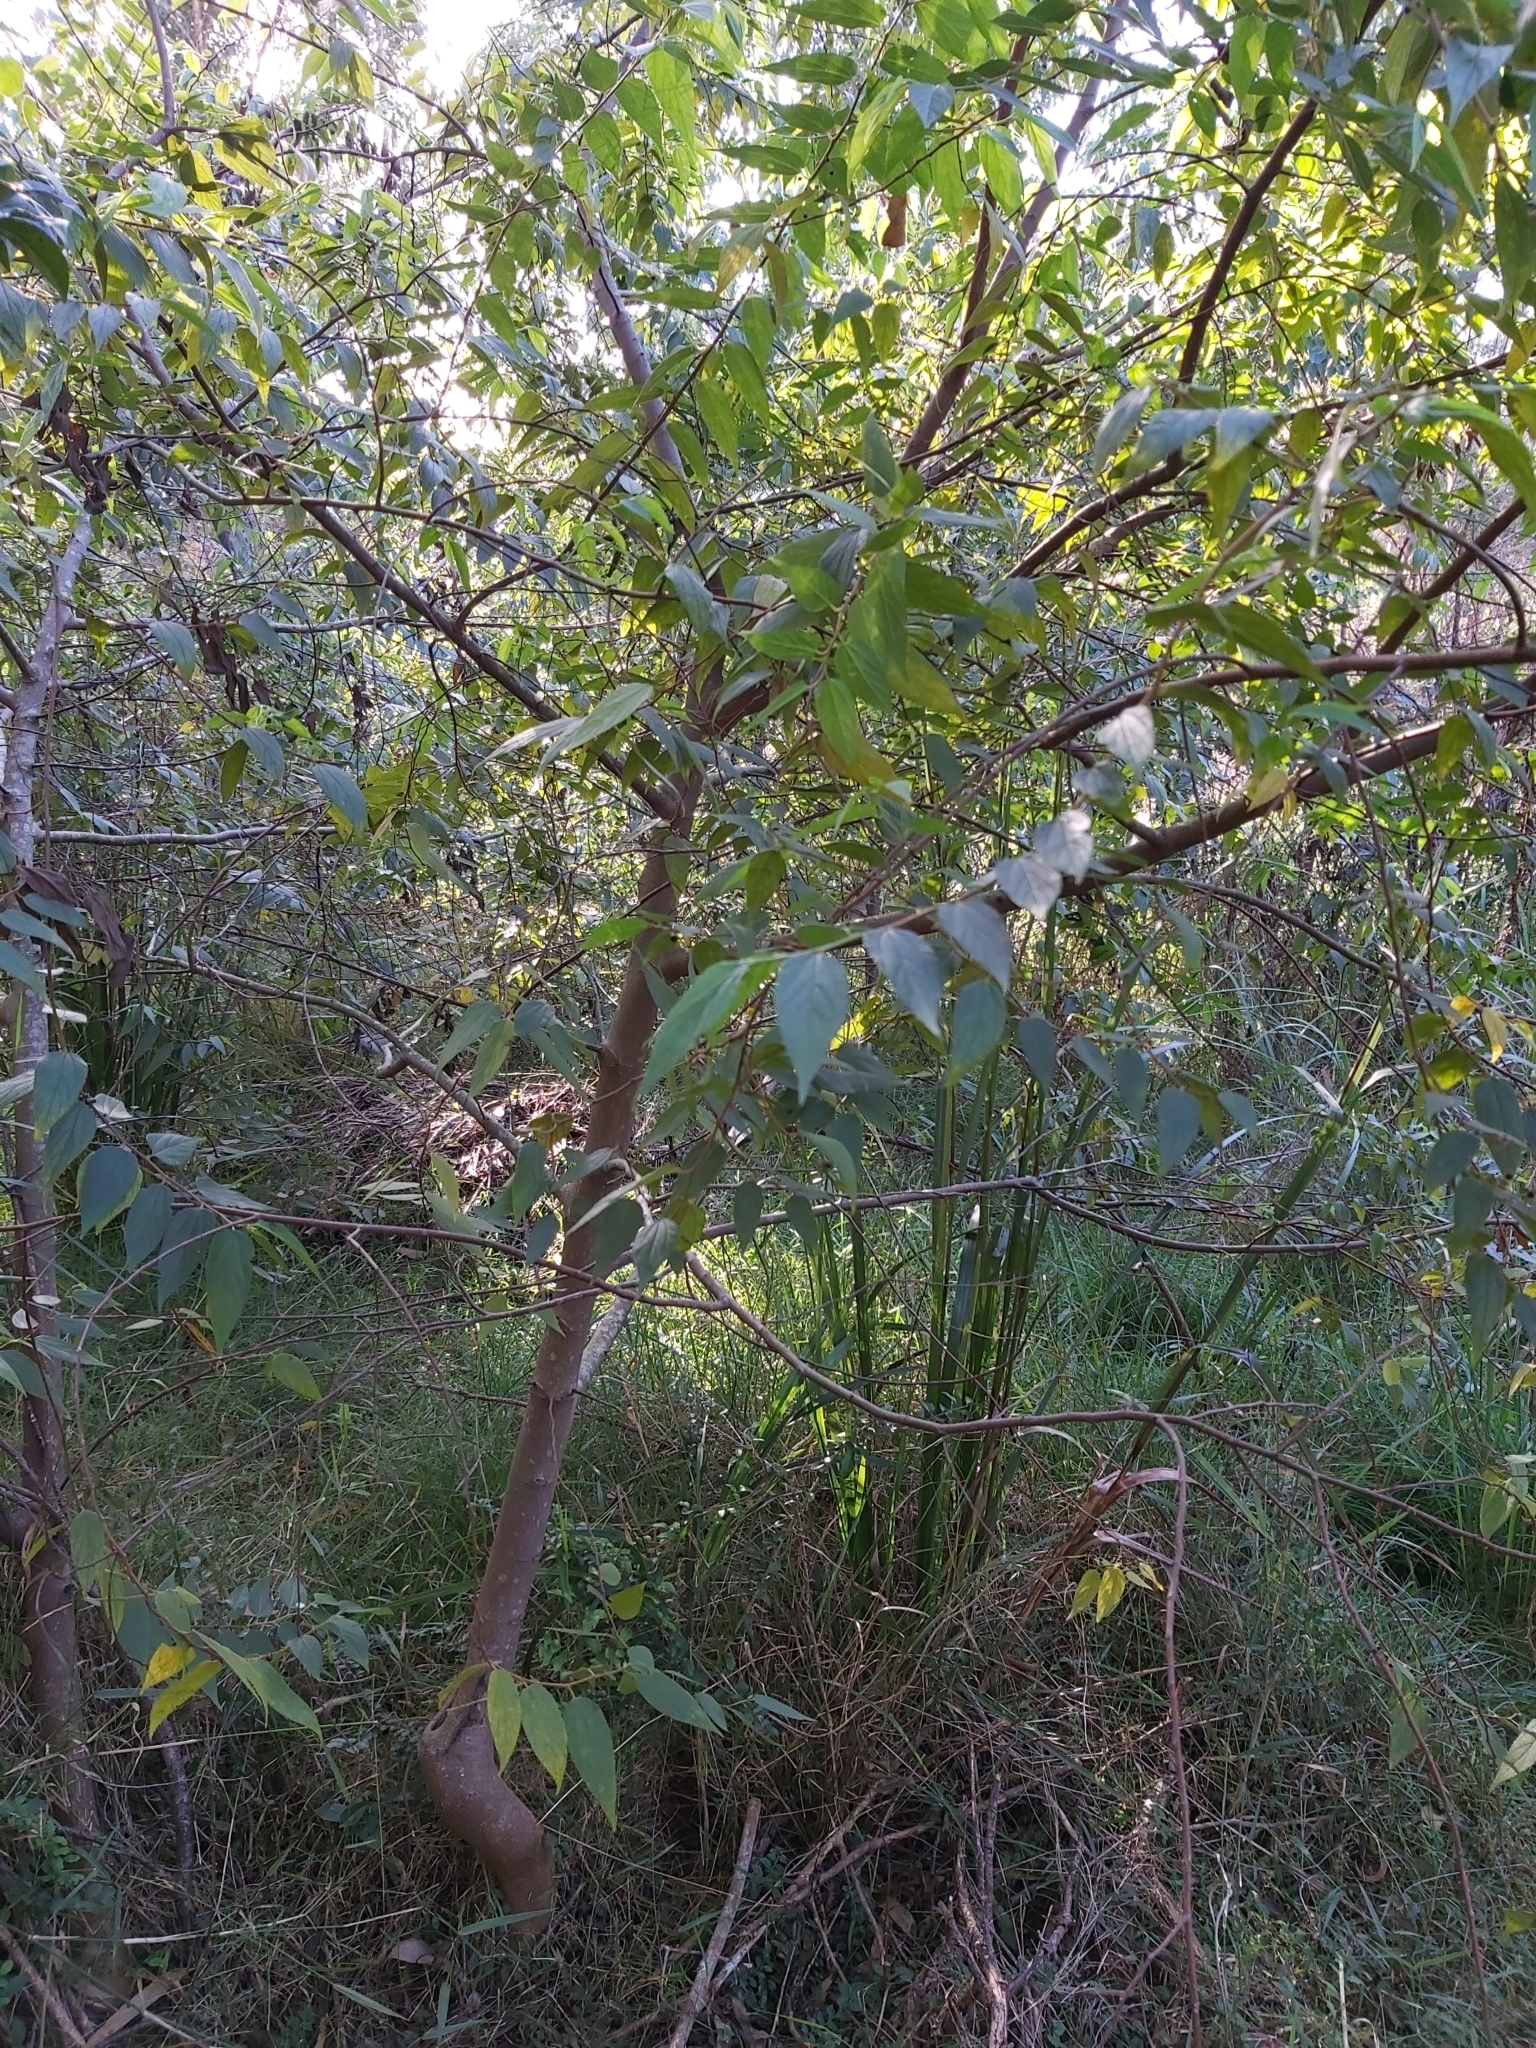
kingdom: Plantae
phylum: Tracheophyta
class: Magnoliopsida
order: Rosales
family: Cannabaceae
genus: Trema
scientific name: Trema tomentosum
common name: Peach-leaf-poisonbush
